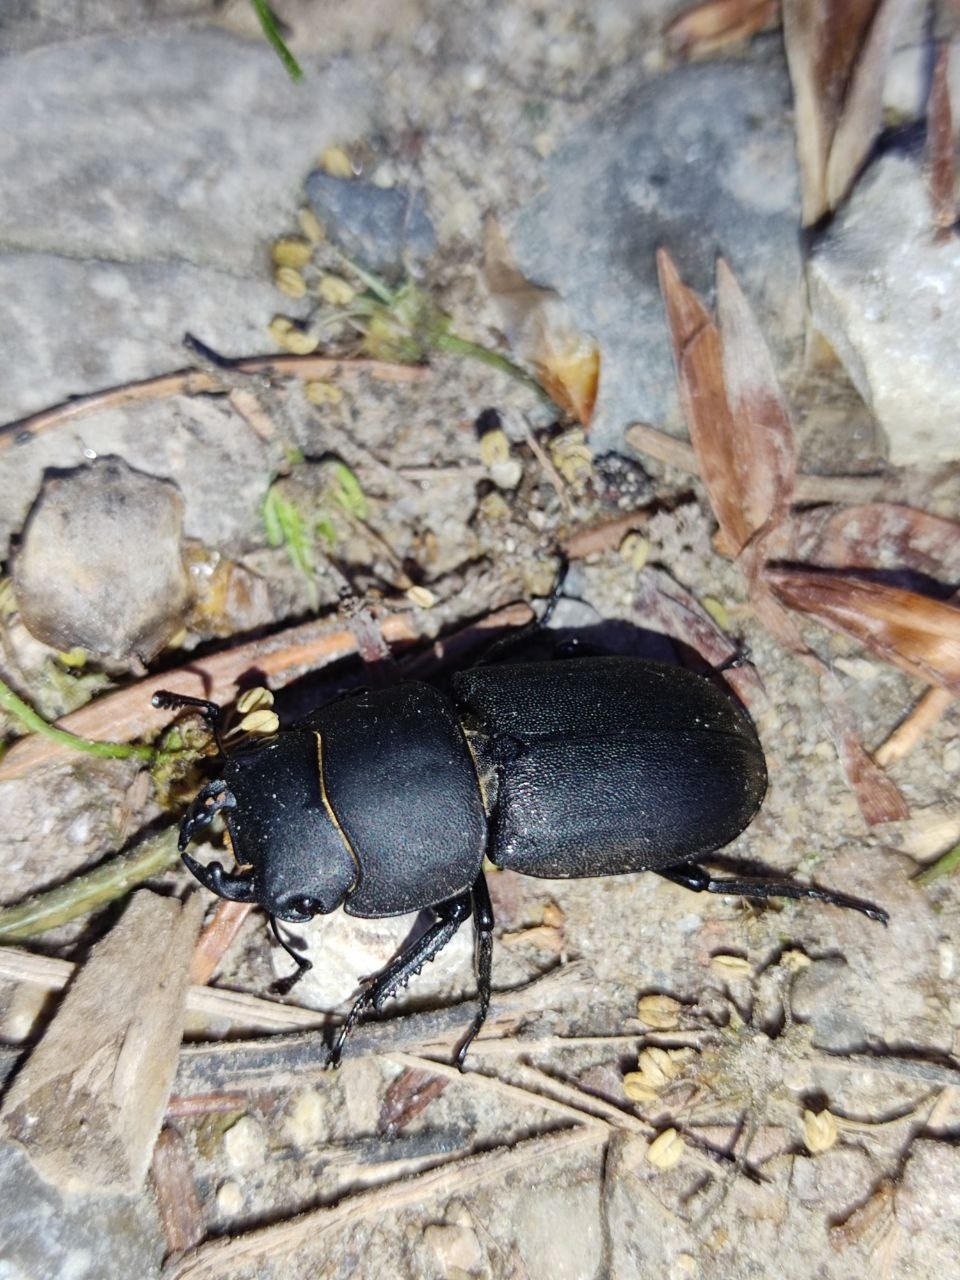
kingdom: Animalia
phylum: Arthropoda
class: Insecta
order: Coleoptera
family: Lucanidae
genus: Dorcus
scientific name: Dorcus parallelipipedus
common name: Lesser stag beetle
